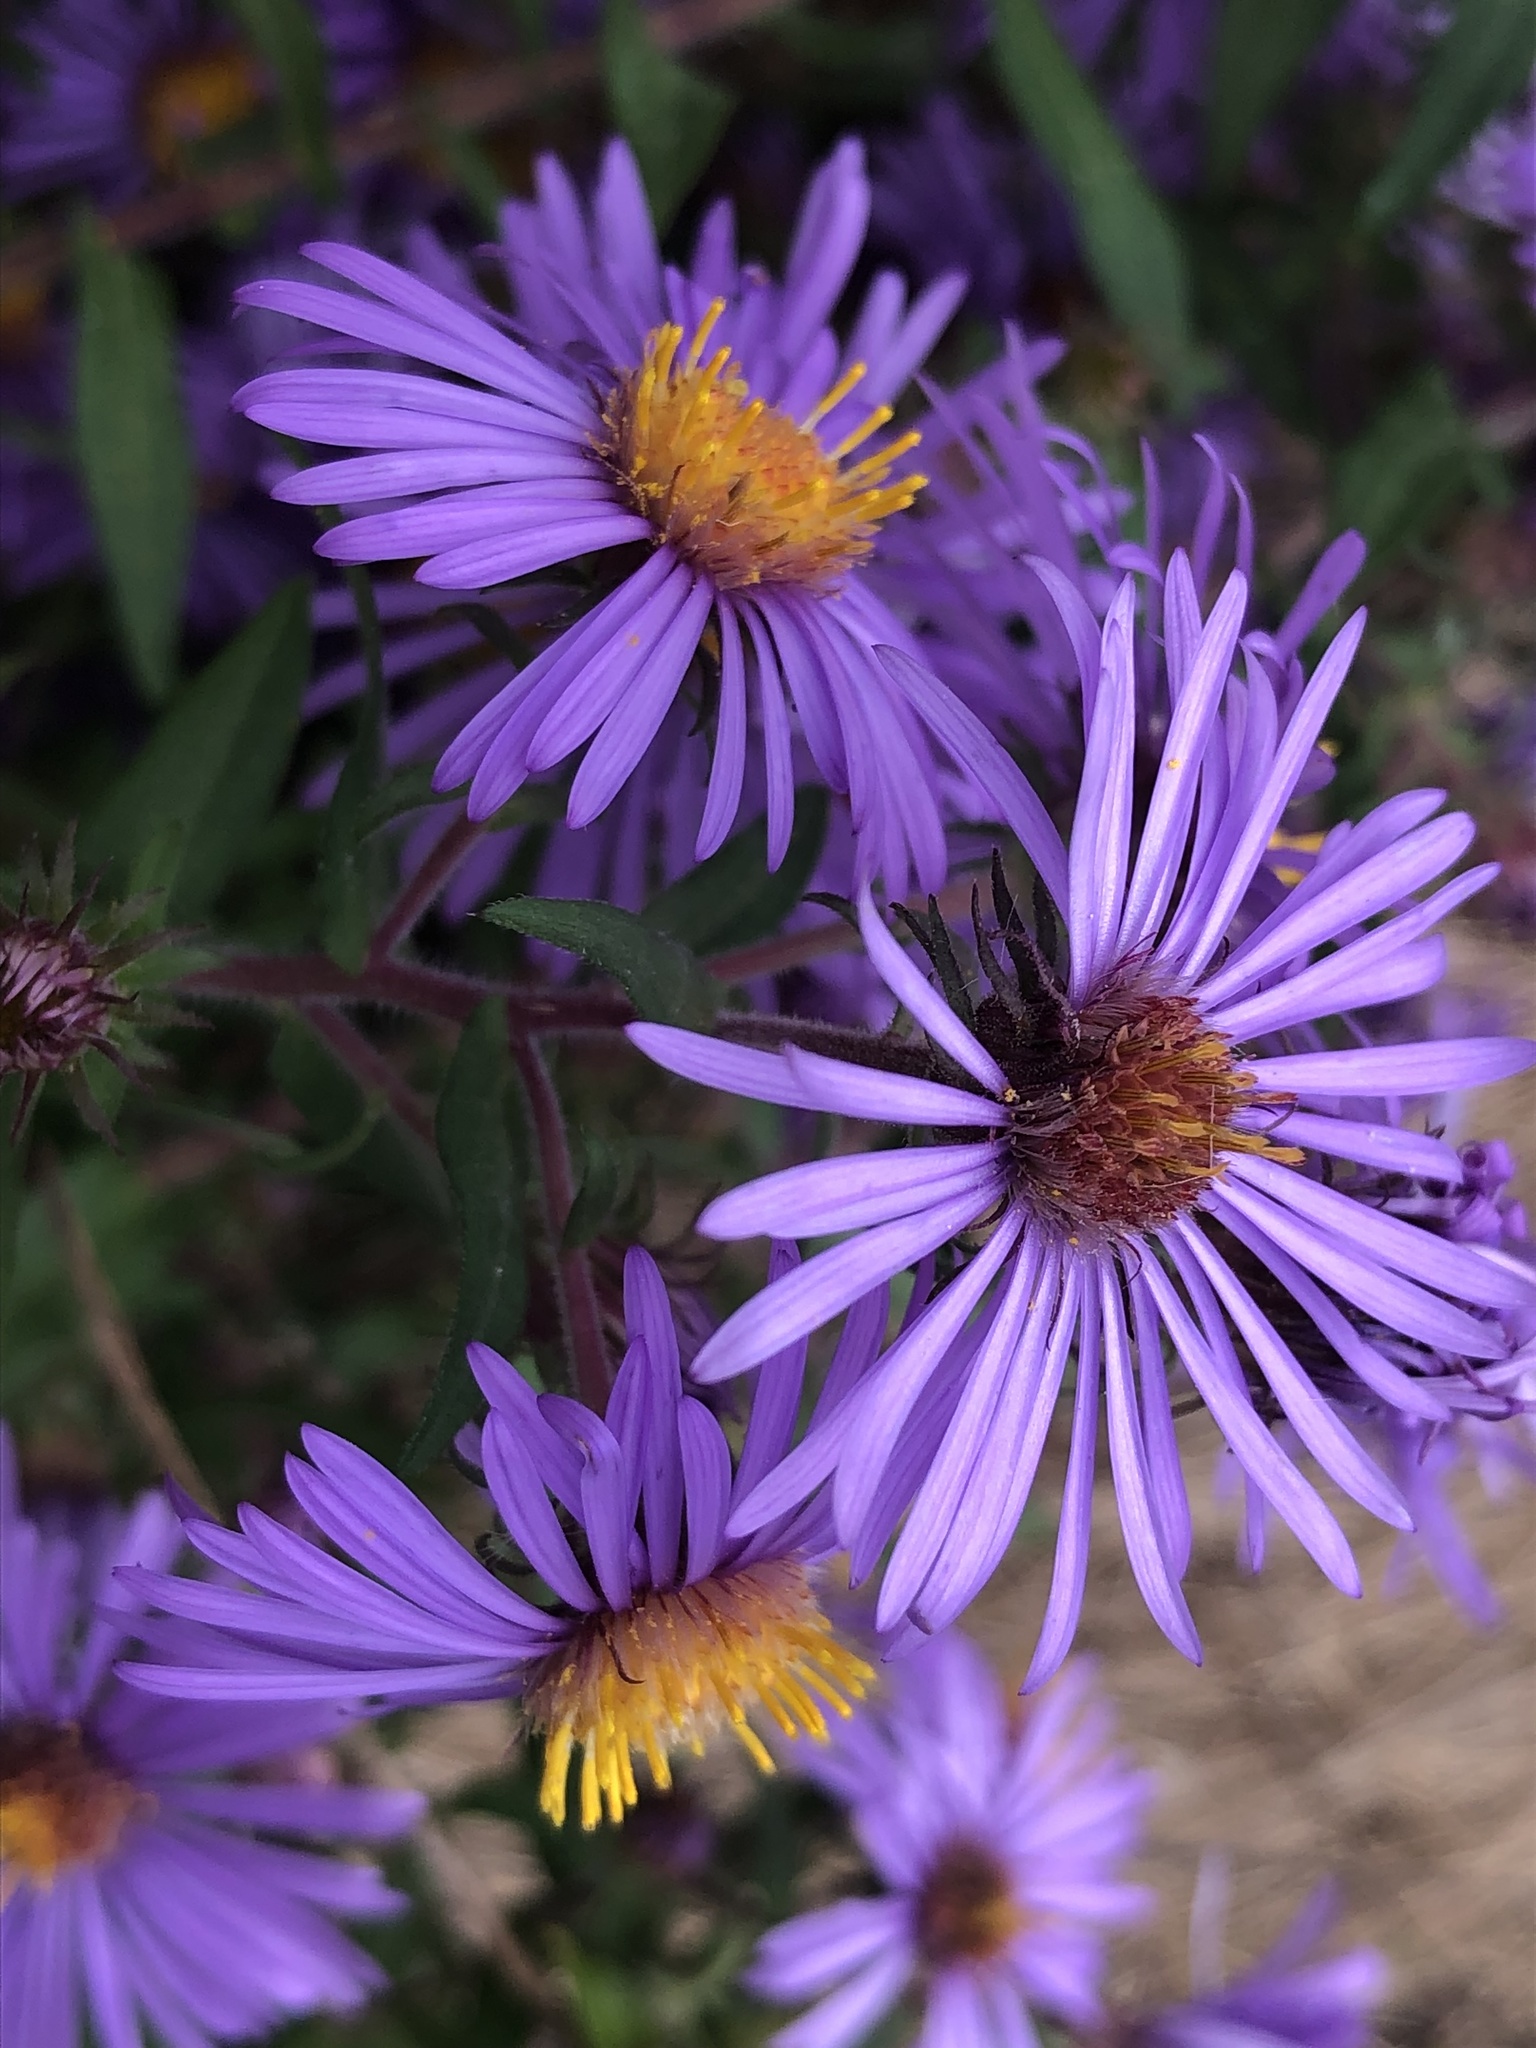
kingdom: Plantae
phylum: Tracheophyta
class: Magnoliopsida
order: Asterales
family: Asteraceae
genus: Symphyotrichum
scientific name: Symphyotrichum novae-angliae
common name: Michaelmas daisy
